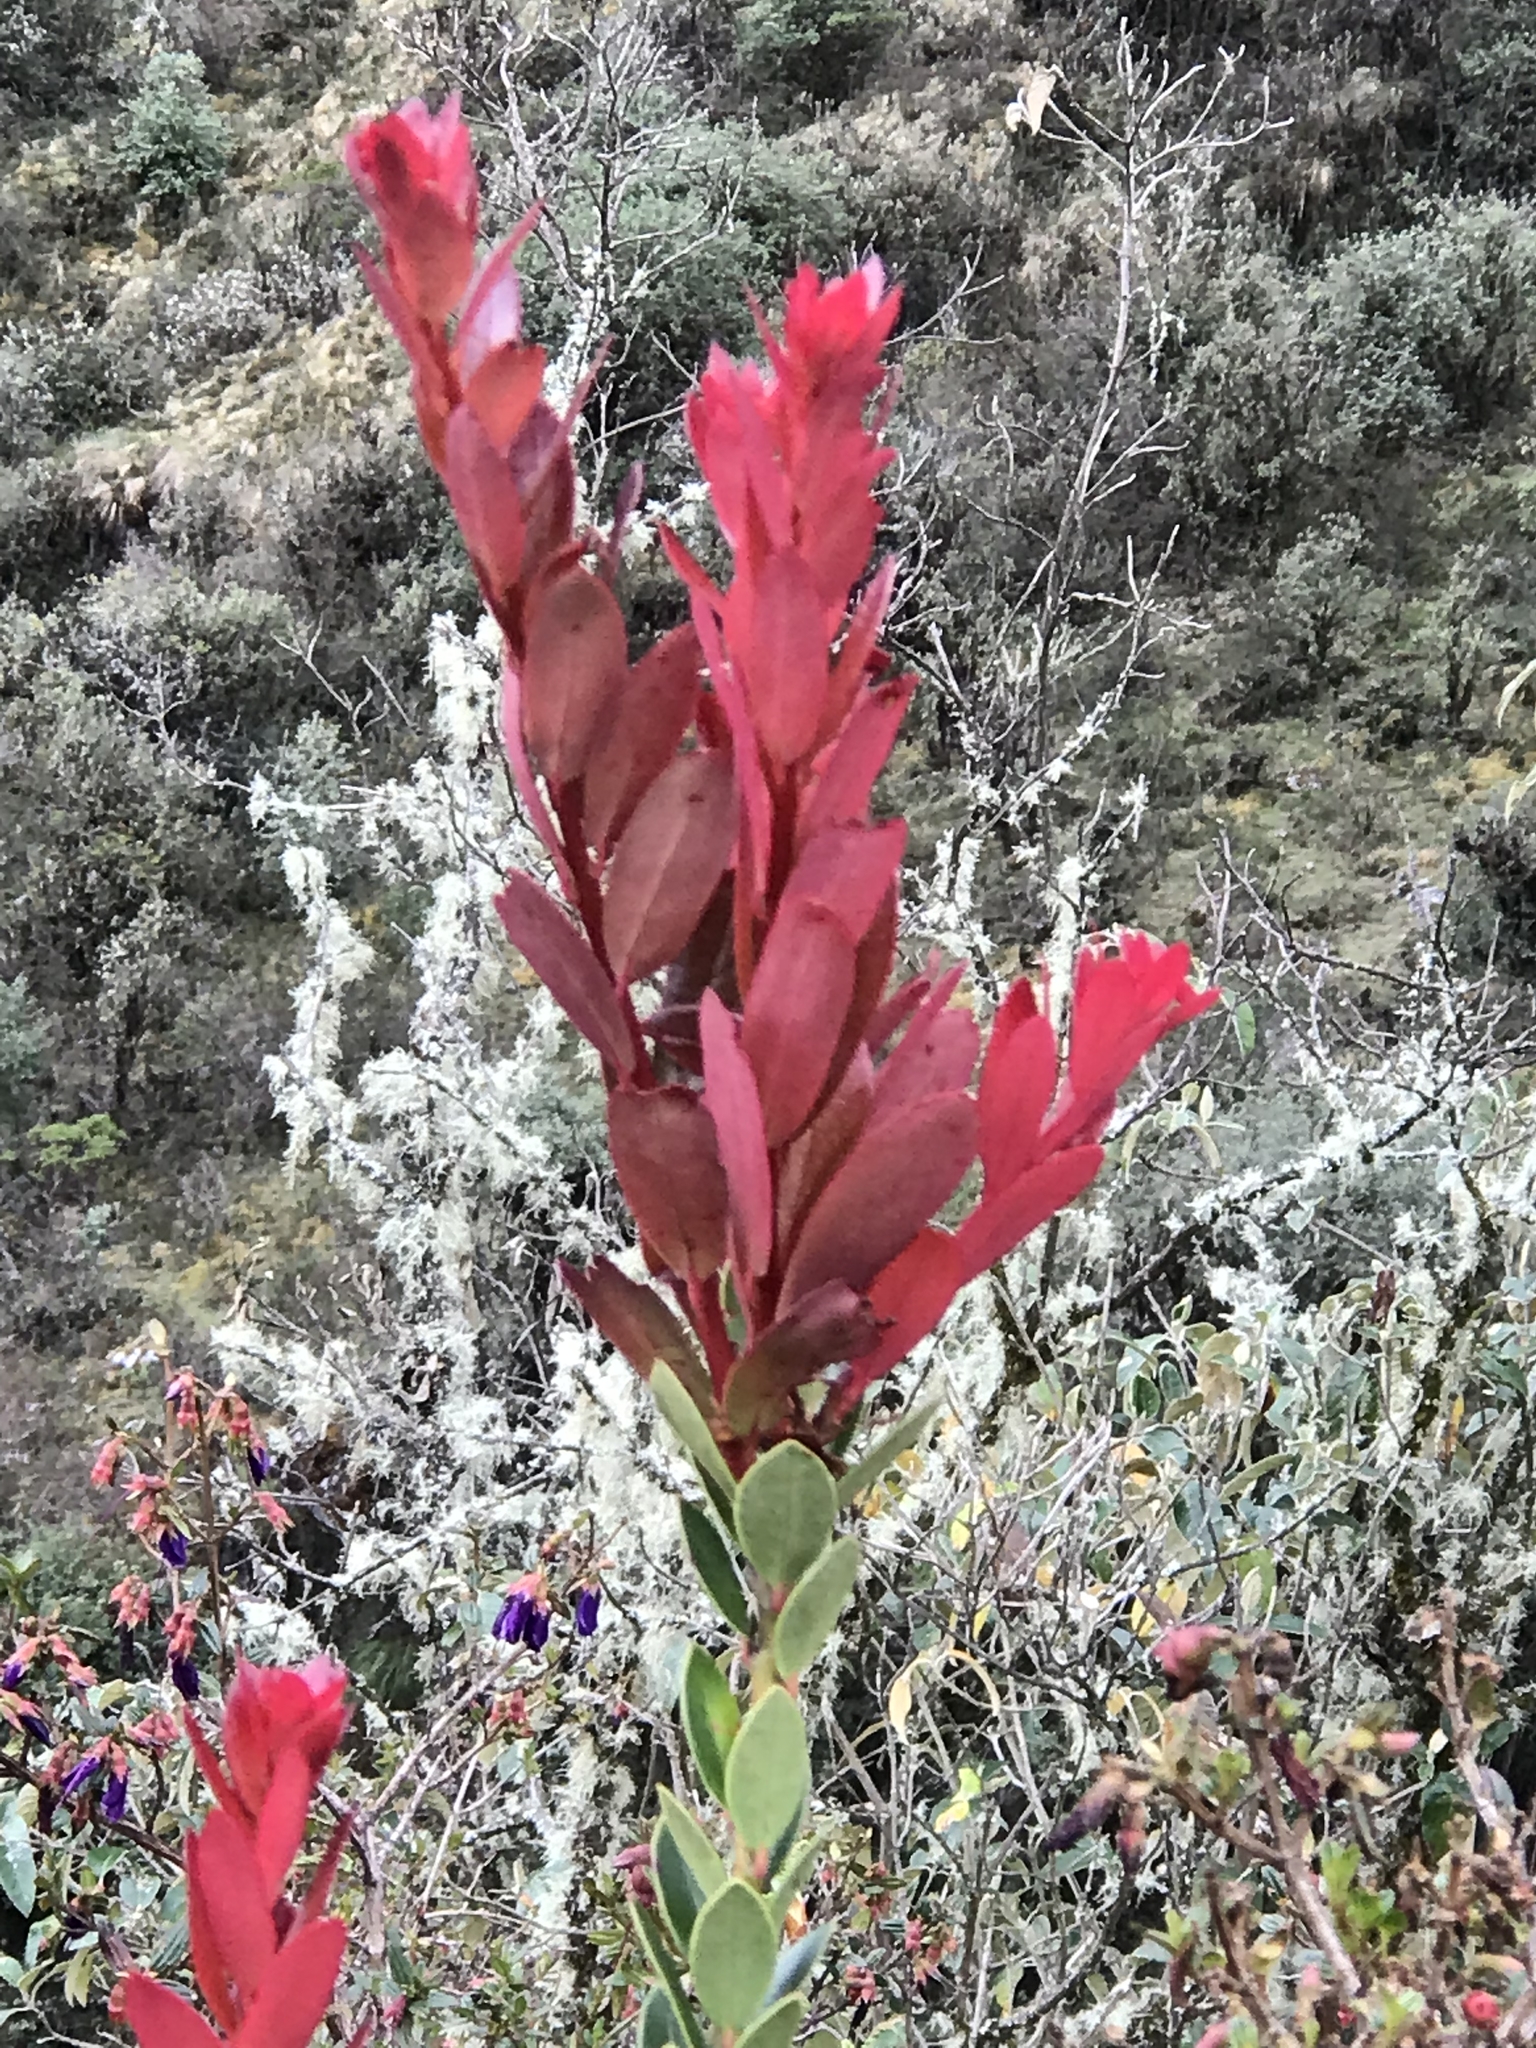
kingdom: Plantae
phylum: Tracheophyta
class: Magnoliopsida
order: Ericales
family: Ericaceae
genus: Siphonandra
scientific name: Siphonandra elliptica
